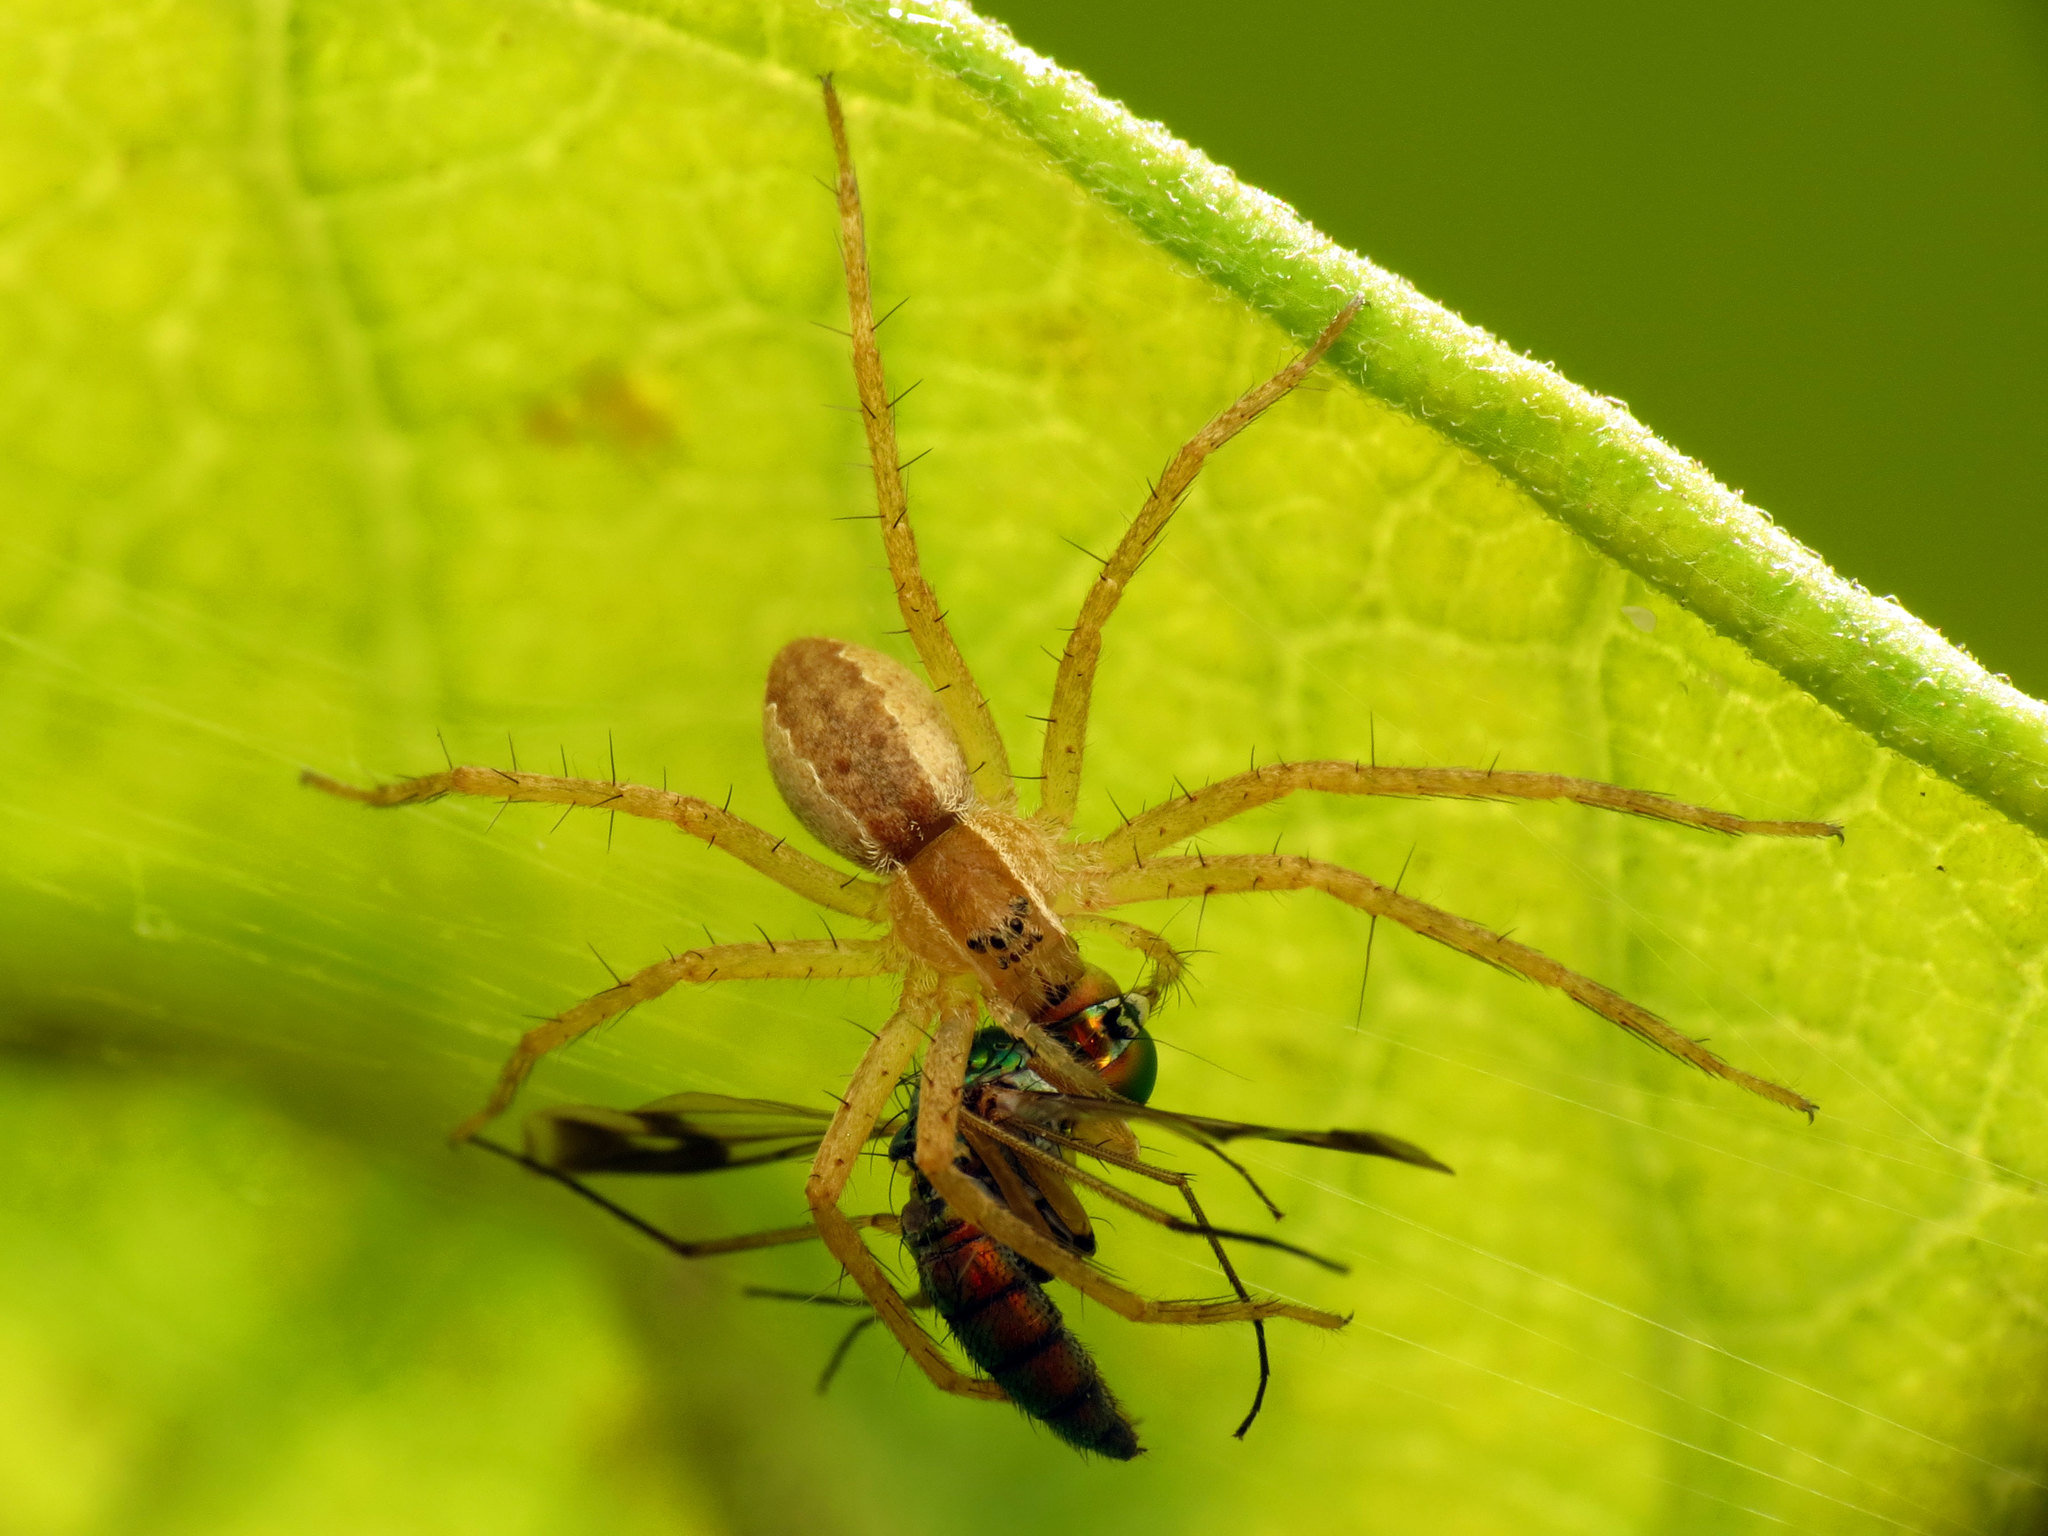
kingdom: Animalia
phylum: Arthropoda
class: Arachnida
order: Araneae
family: Pisauridae
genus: Pisaurina
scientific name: Pisaurina mira
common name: American nursery web spider
